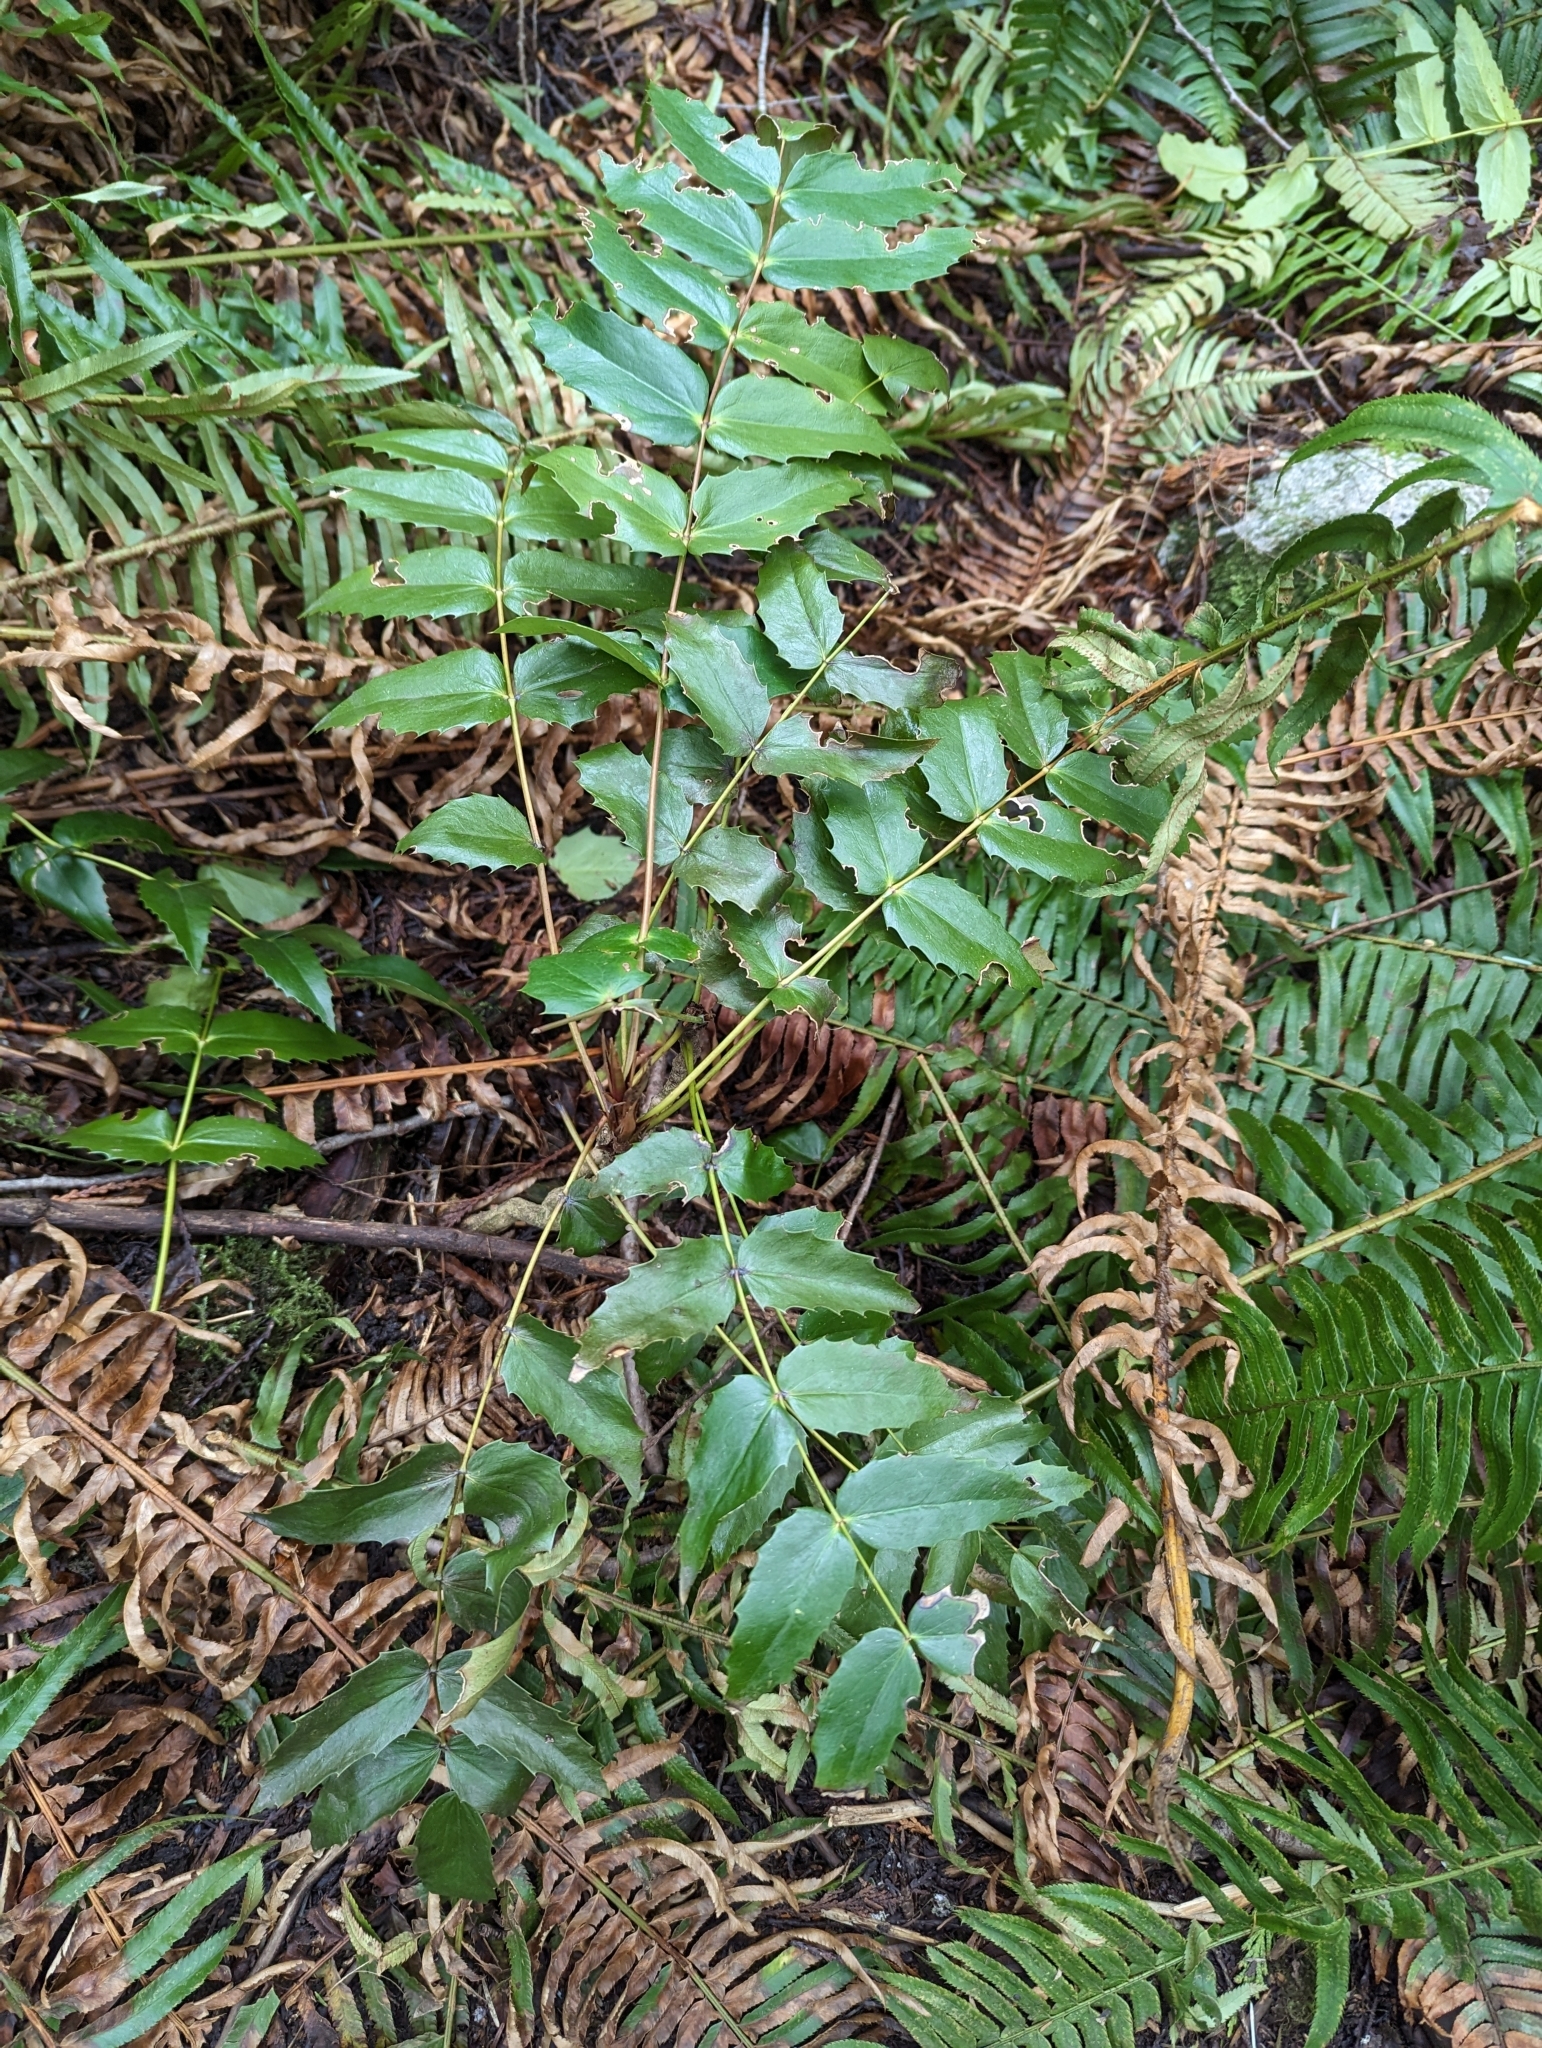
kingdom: Plantae
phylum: Tracheophyta
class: Magnoliopsida
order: Ranunculales
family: Berberidaceae
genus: Mahonia
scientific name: Mahonia nervosa
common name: Cascade oregon-grape
